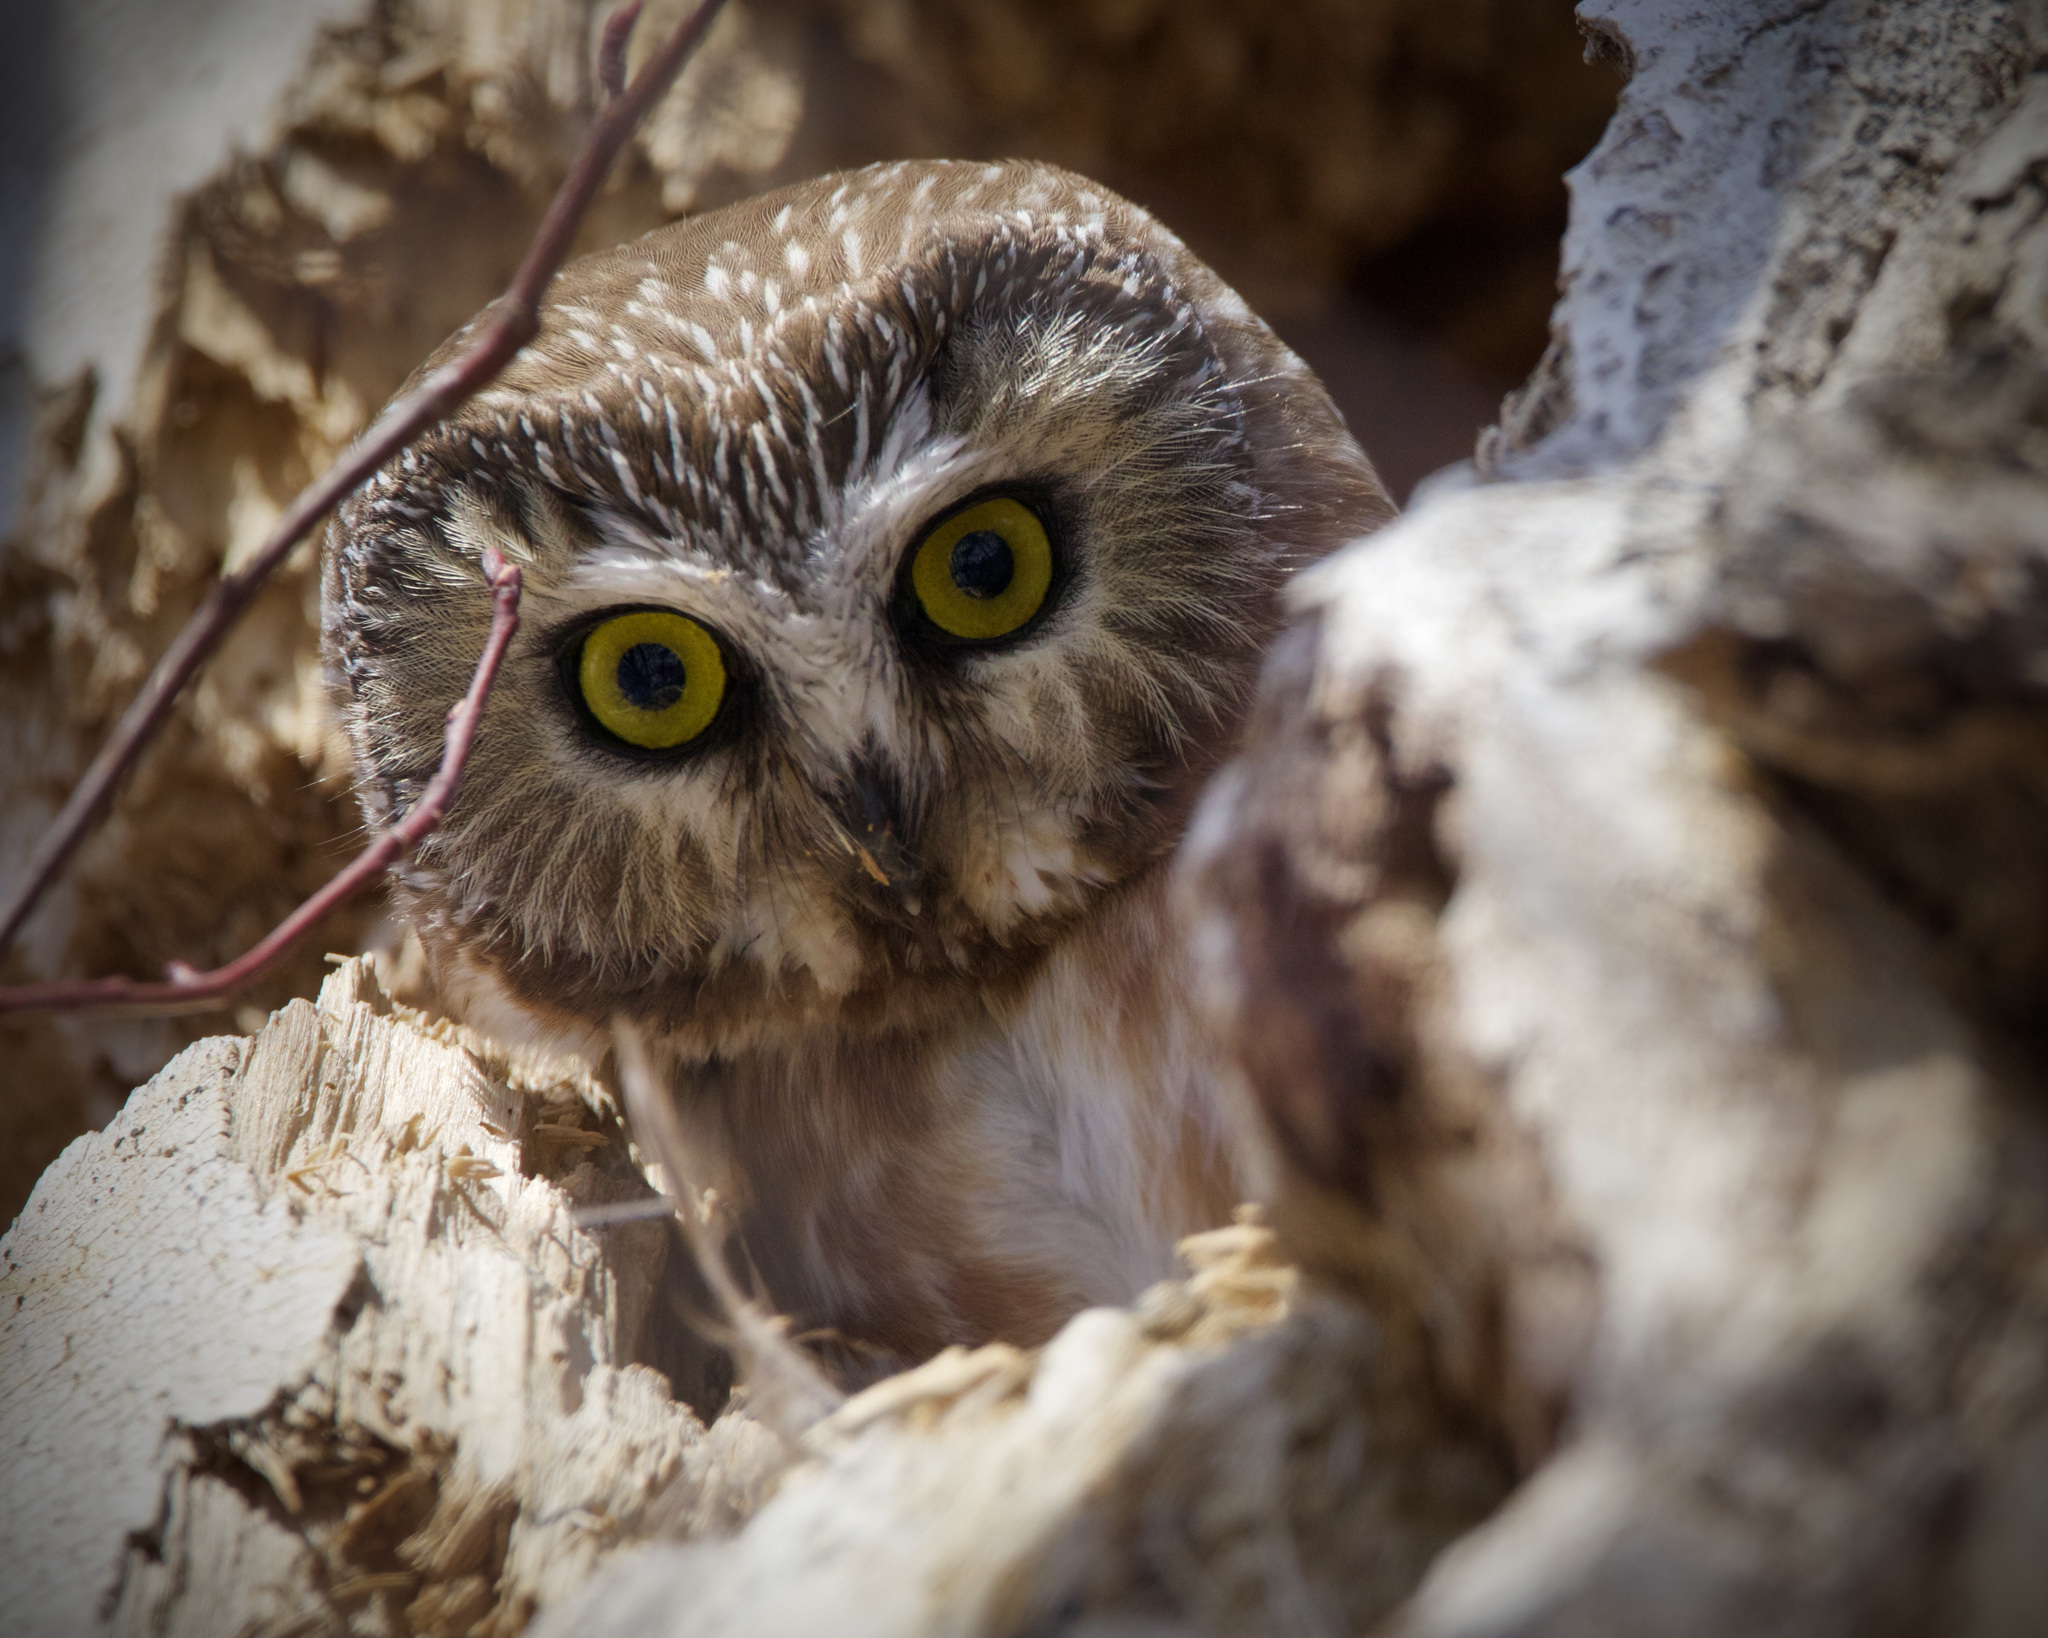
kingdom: Animalia
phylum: Chordata
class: Aves
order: Strigiformes
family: Strigidae
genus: Aegolius
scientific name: Aegolius acadicus
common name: Northern saw-whet owl
